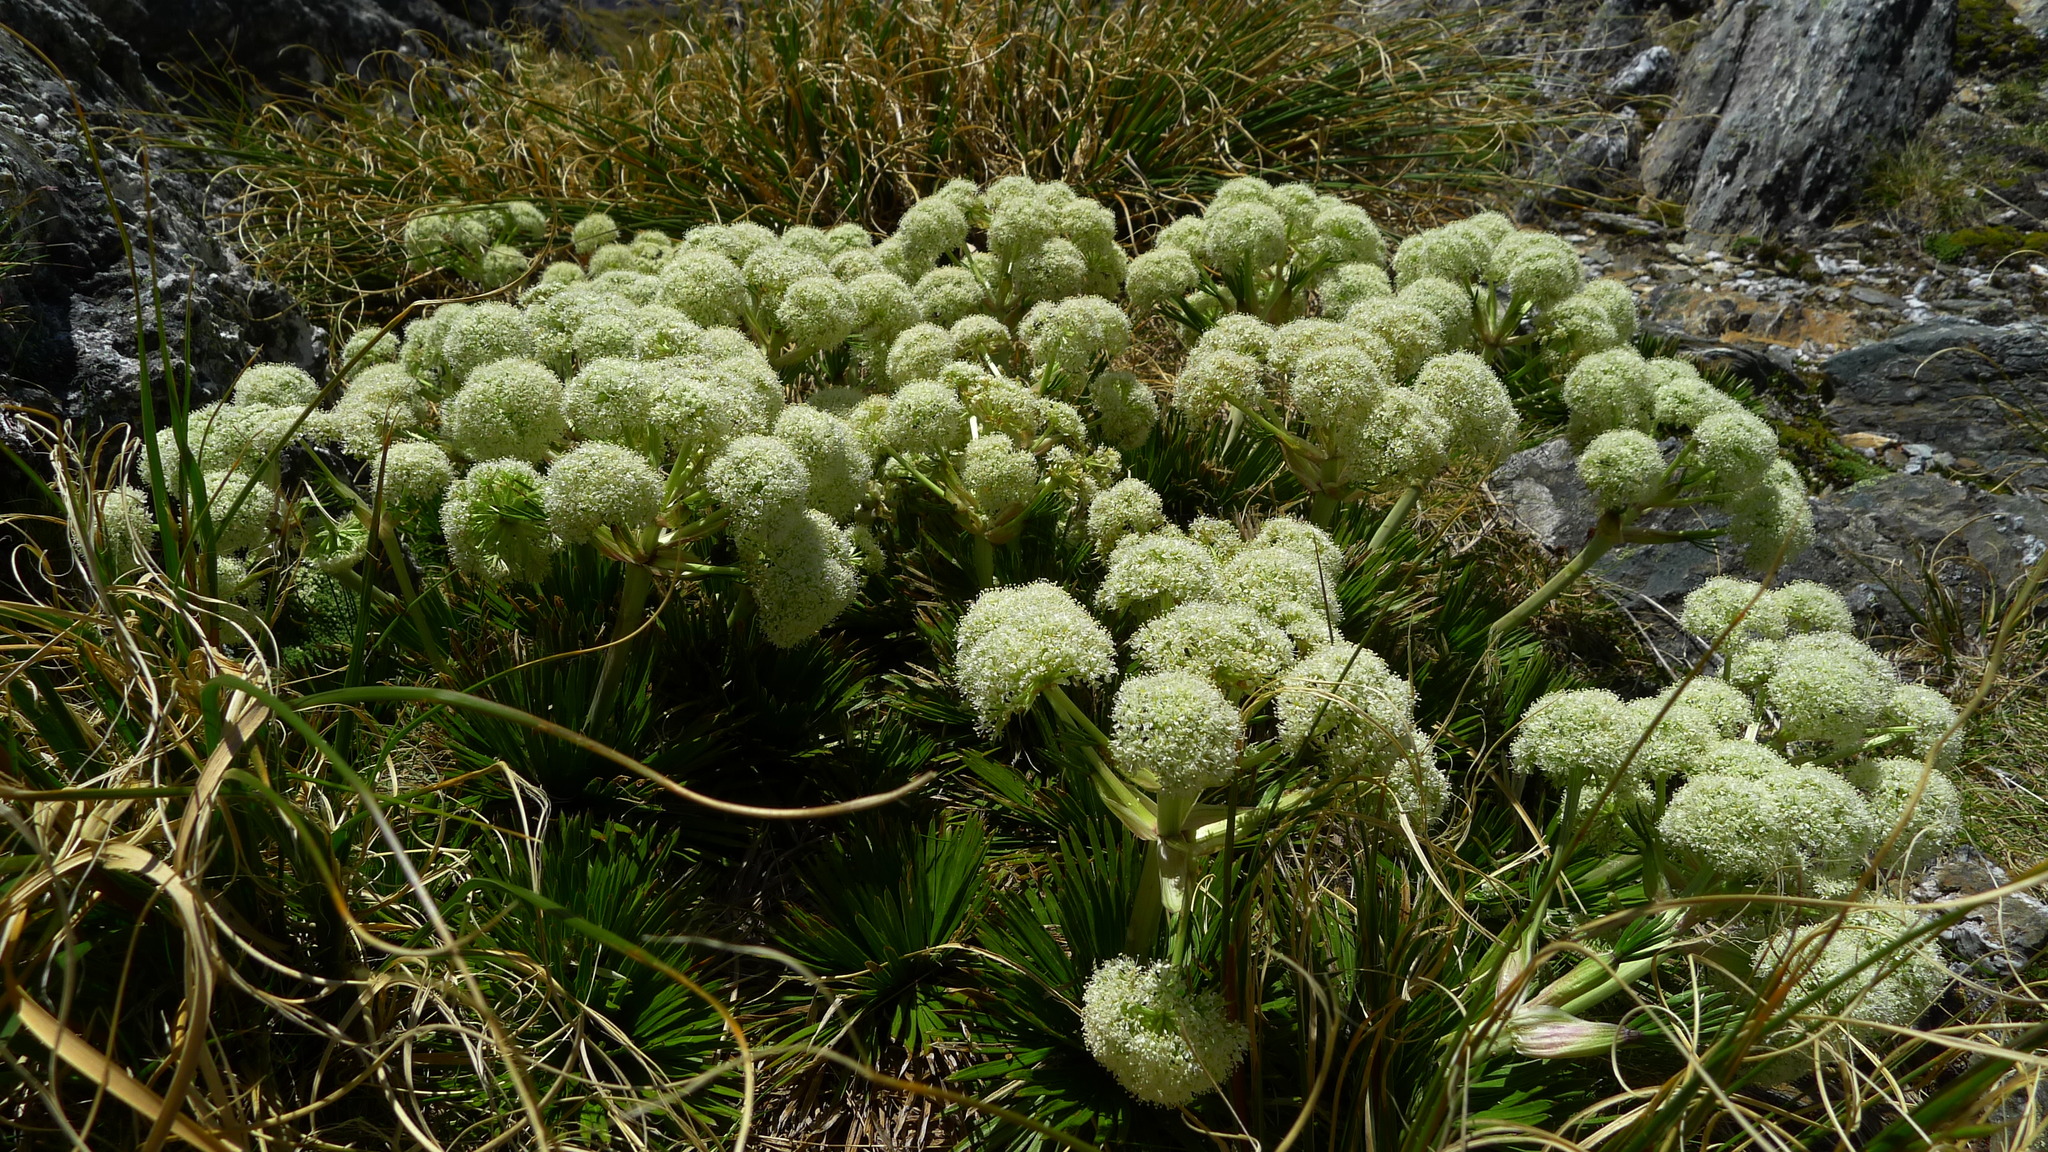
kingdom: Plantae
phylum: Tracheophyta
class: Magnoliopsida
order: Apiales
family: Apiaceae
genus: Aciphylla
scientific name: Aciphylla congesta
